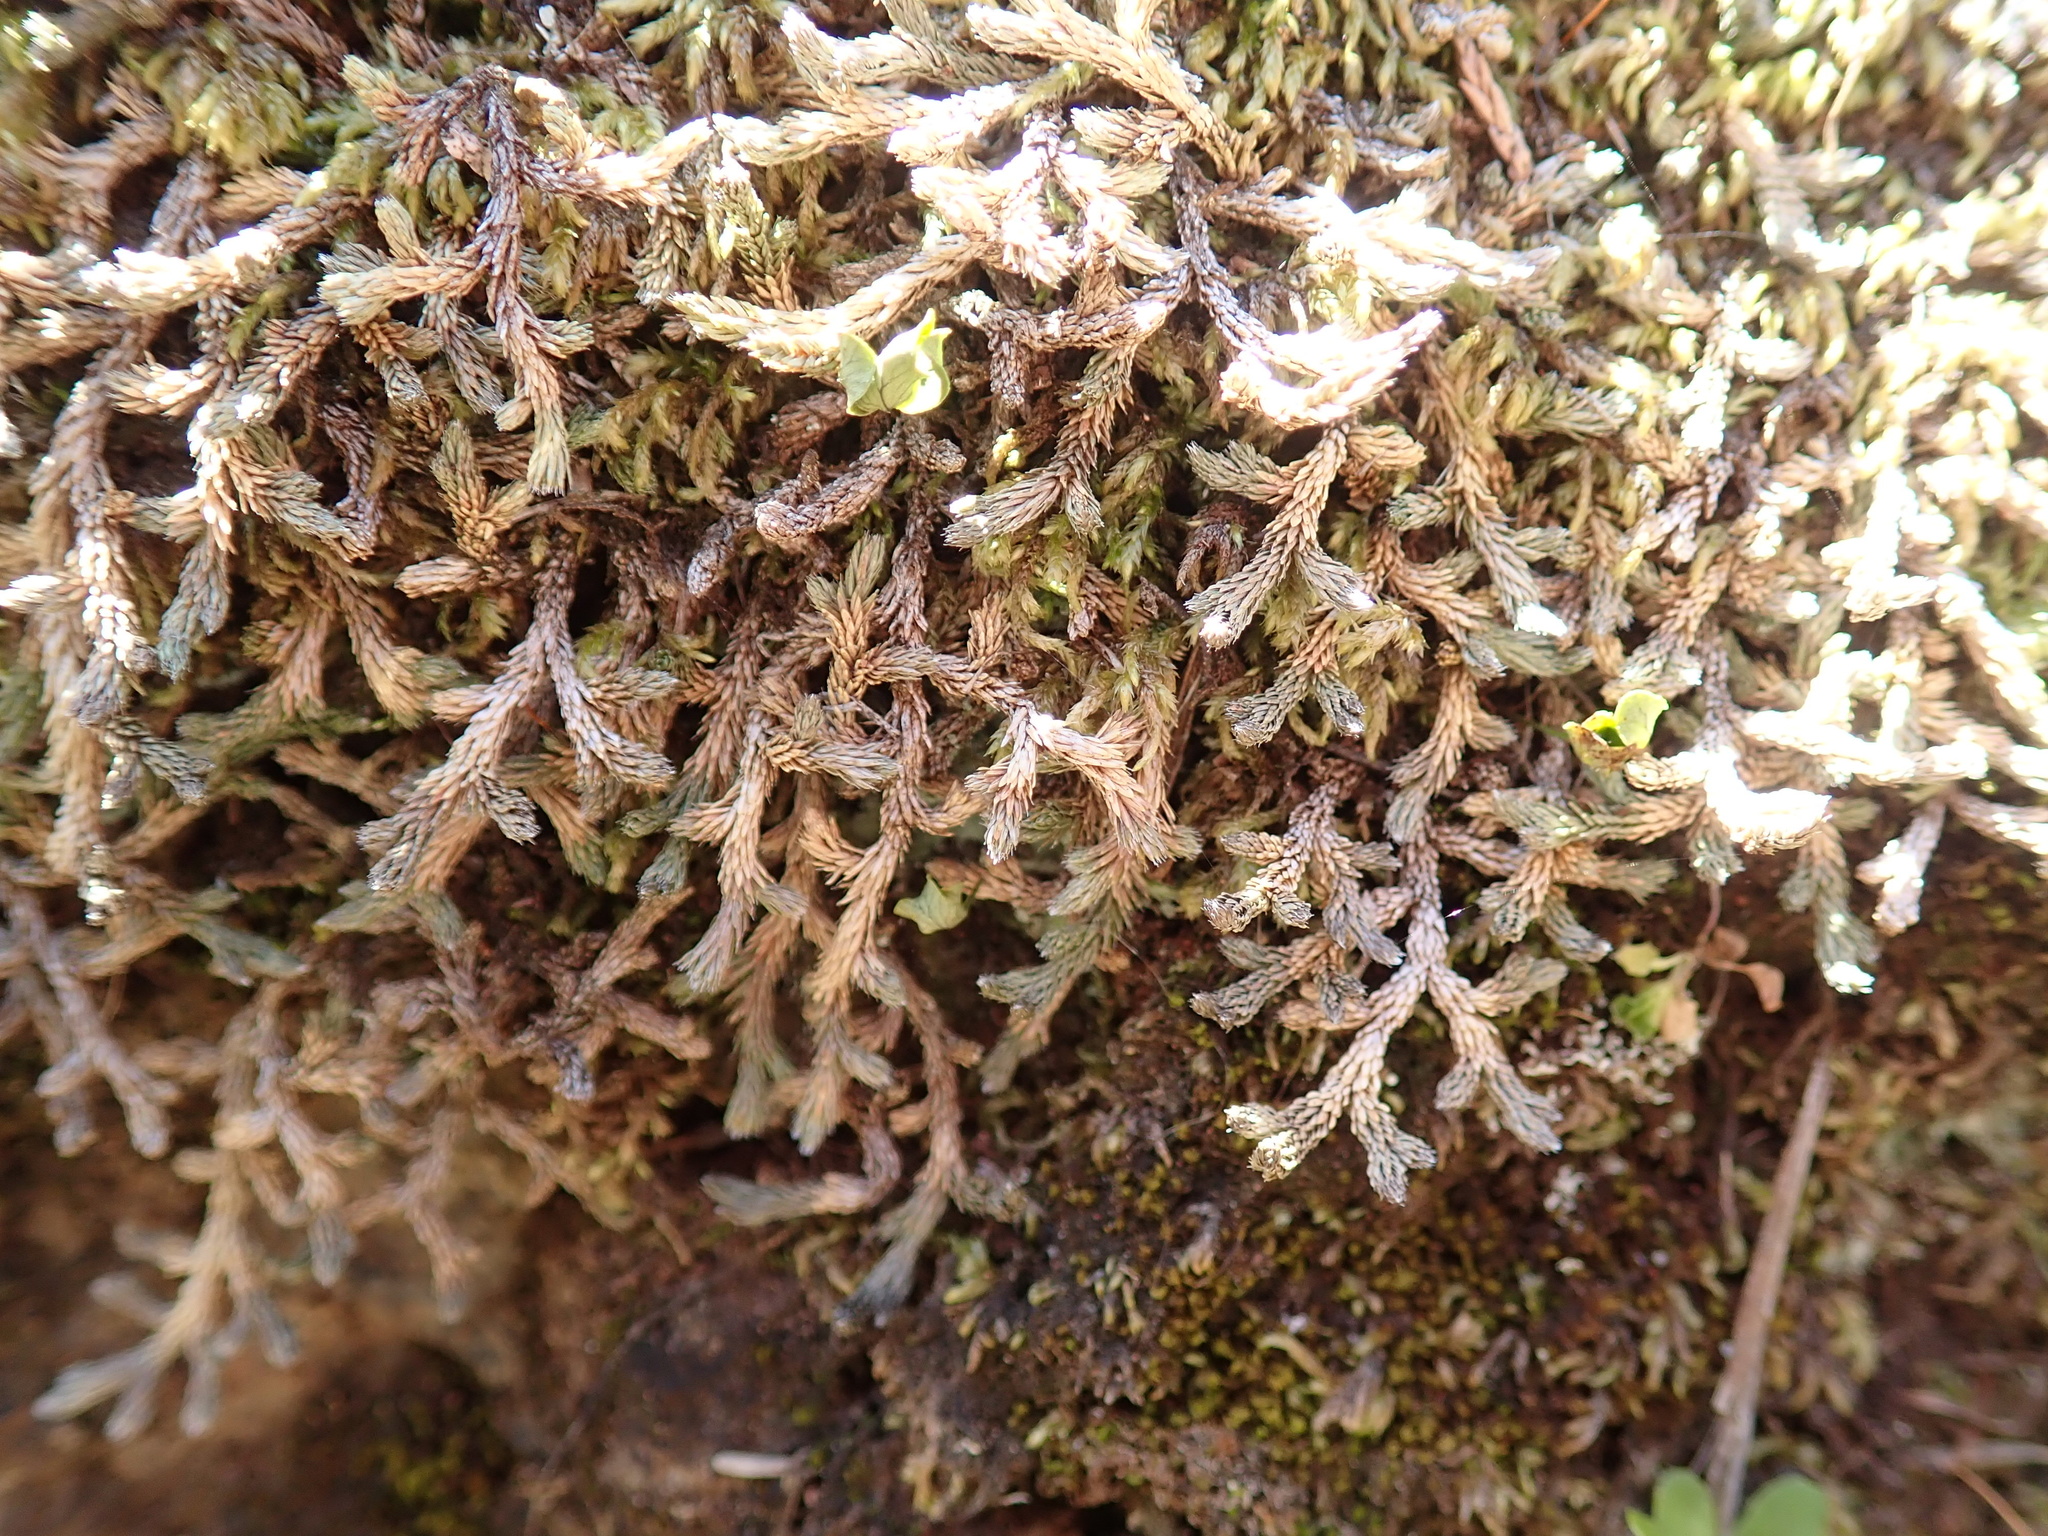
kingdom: Plantae
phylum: Tracheophyta
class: Lycopodiopsida
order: Selaginellales
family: Selaginellaceae
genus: Selaginella
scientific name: Selaginella wallacei
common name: Wallace's selaginella
